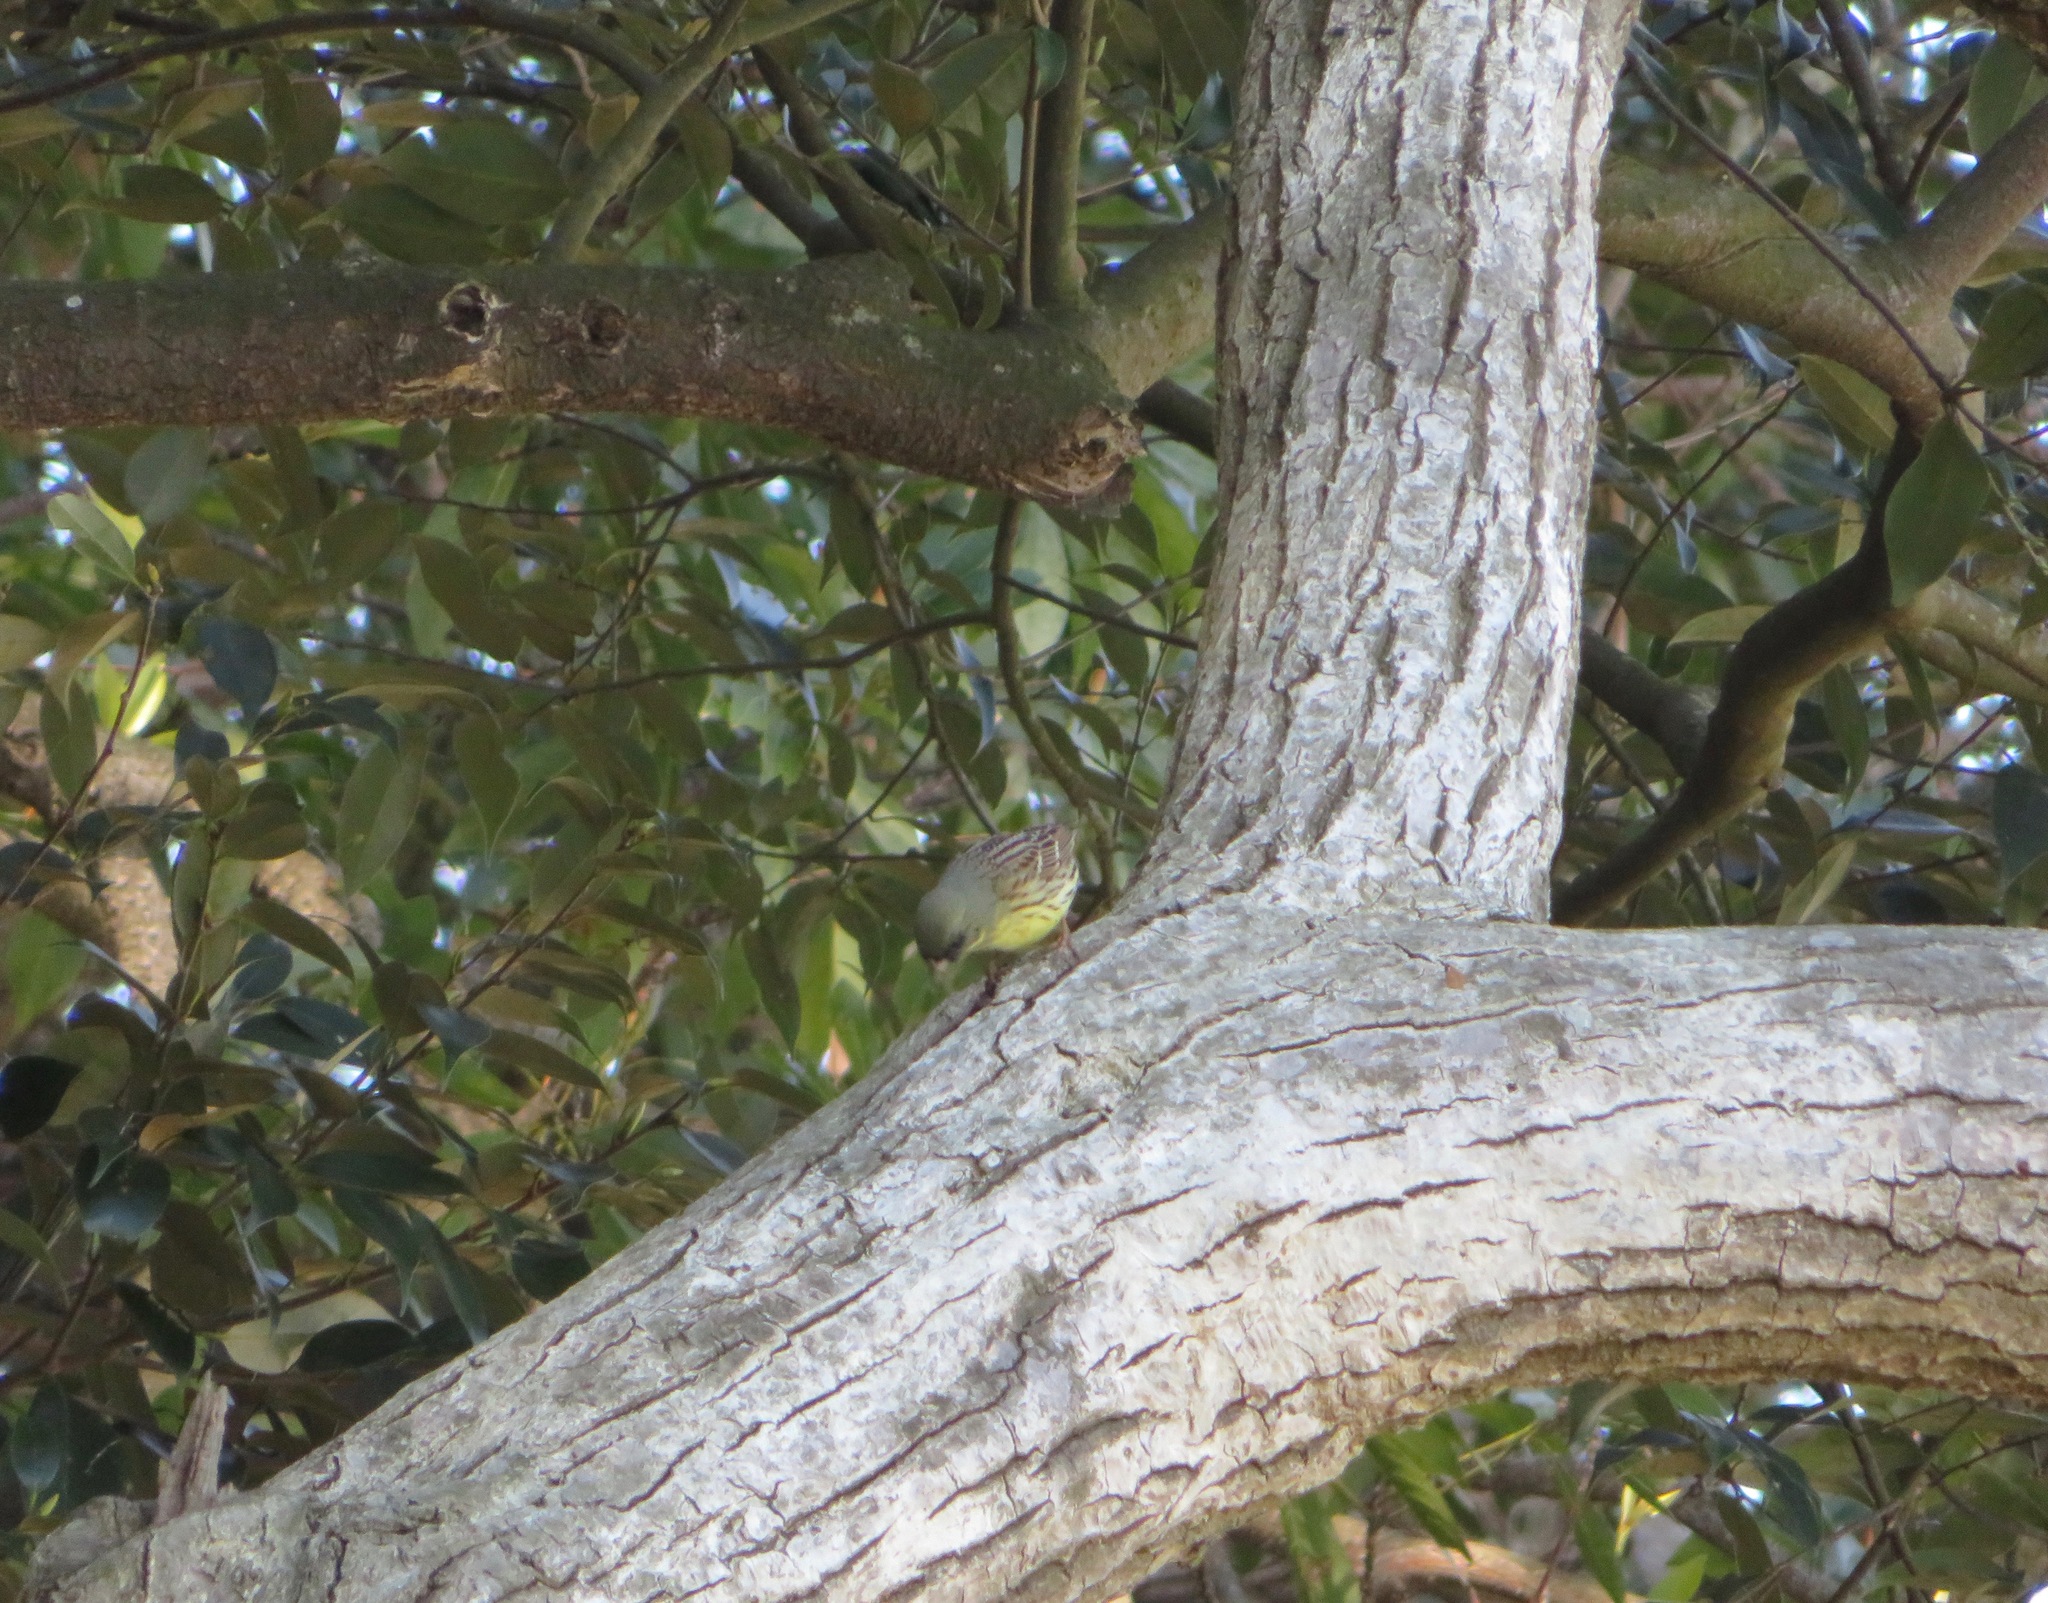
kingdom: Animalia
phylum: Chordata
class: Aves
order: Passeriformes
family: Emberizidae
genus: Emberiza
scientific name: Emberiza personata
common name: Masked bunting
